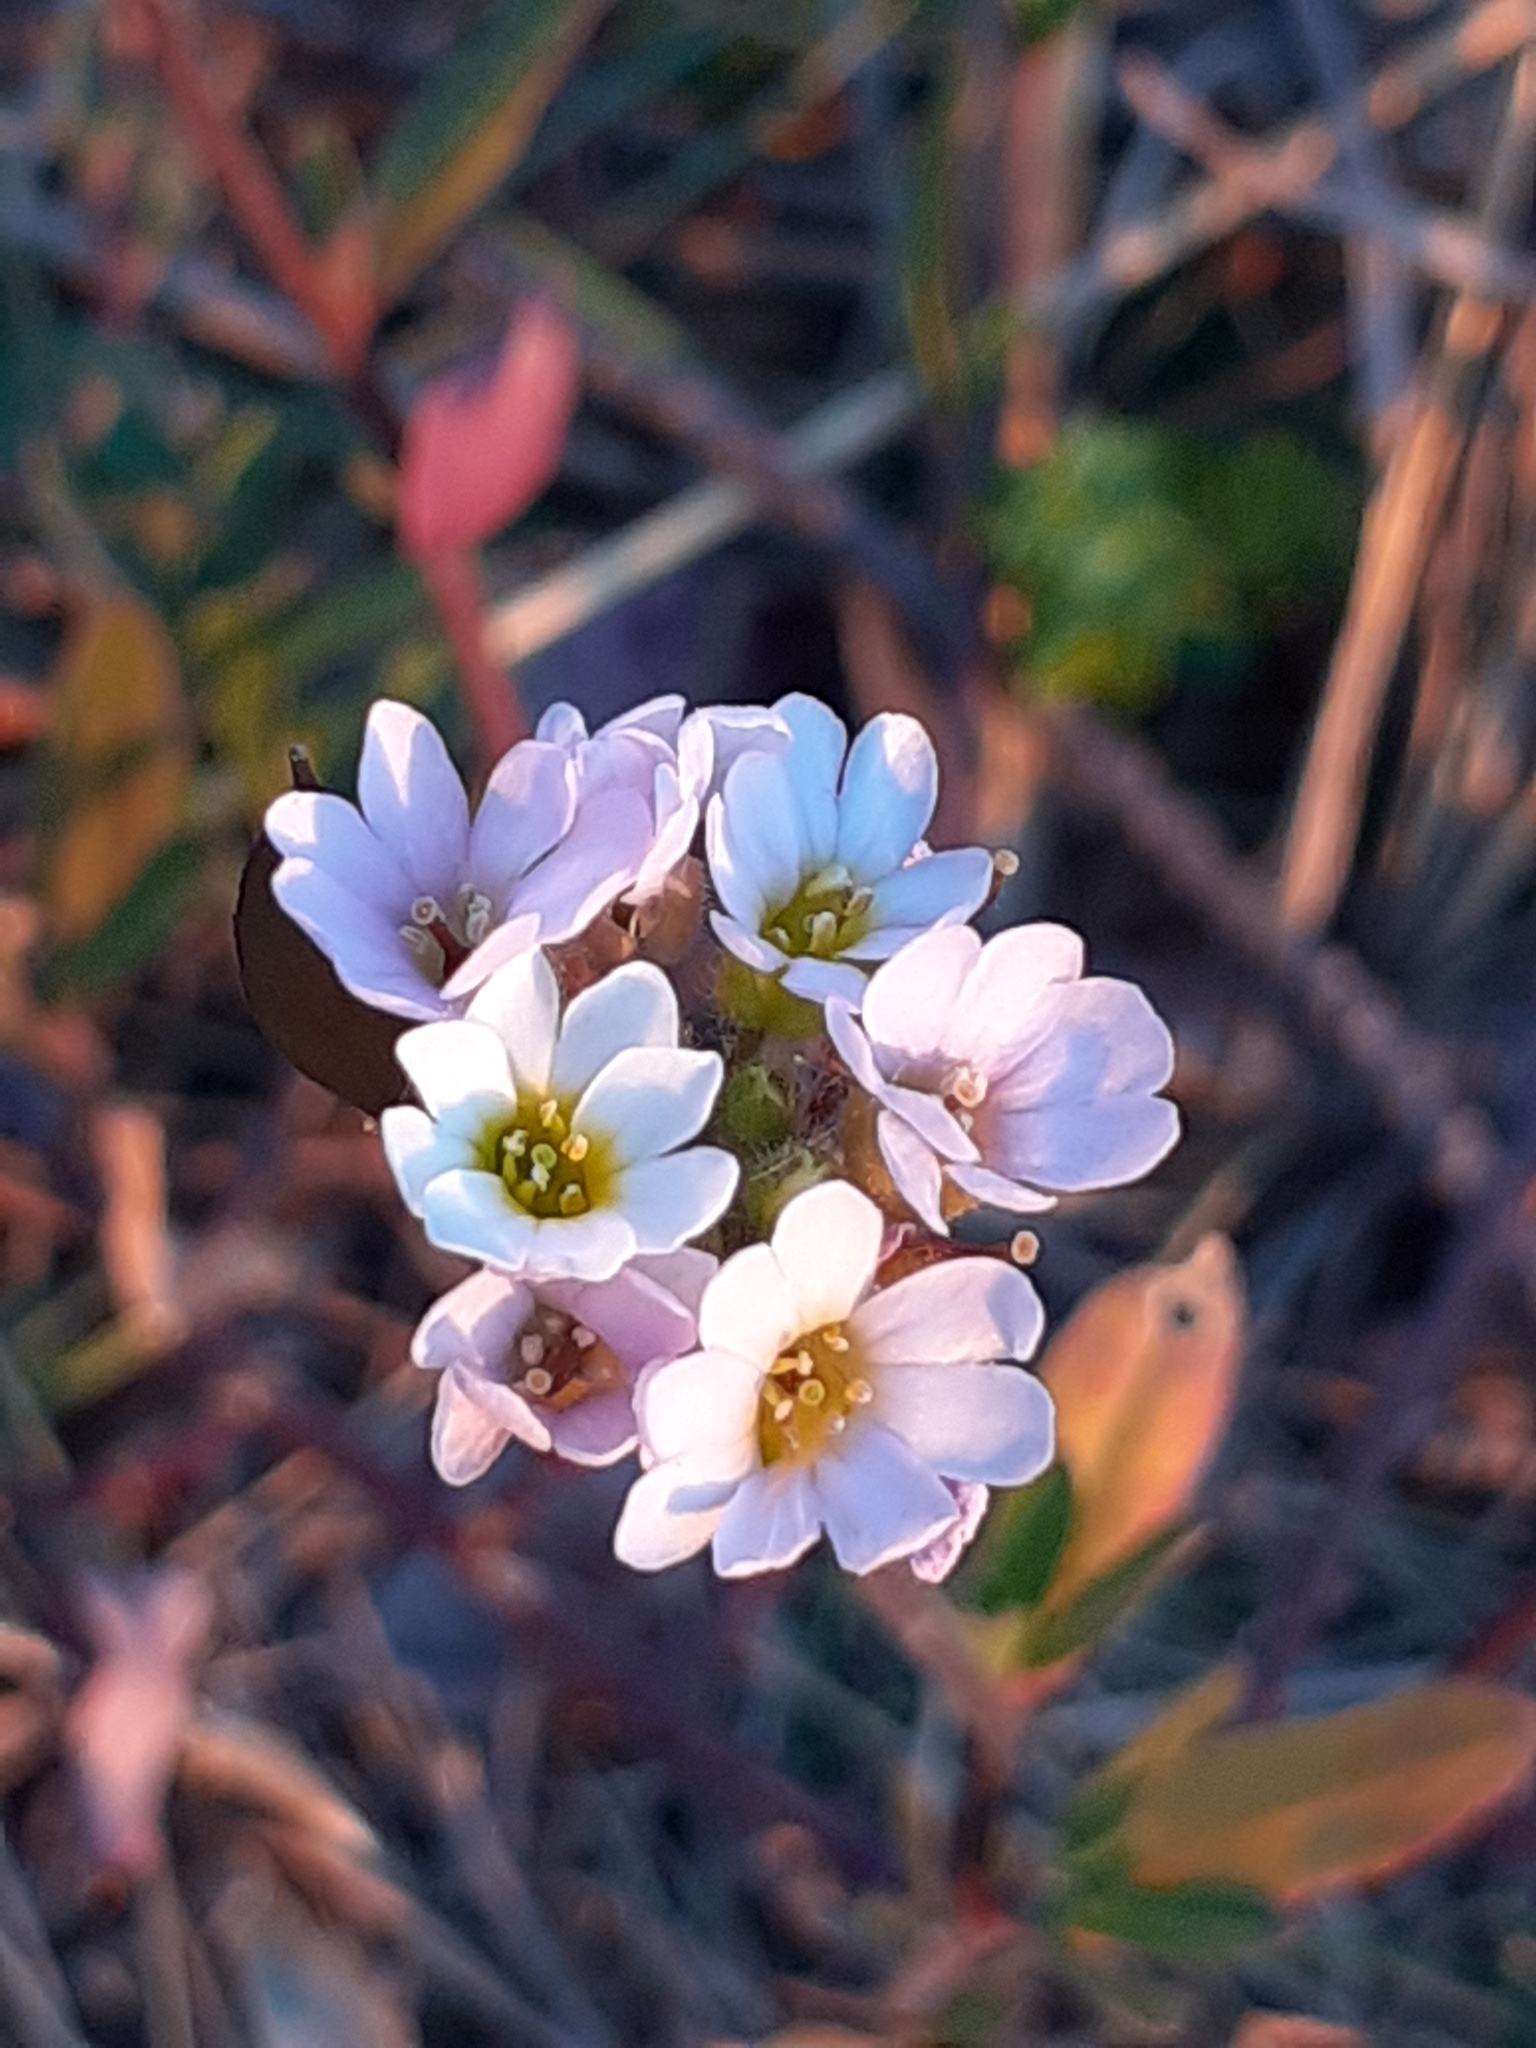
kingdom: Plantae
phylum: Tracheophyta
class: Magnoliopsida
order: Brassicales
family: Brassicaceae
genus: Berteroa
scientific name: Berteroa mutabilis
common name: Roadside false madwort
